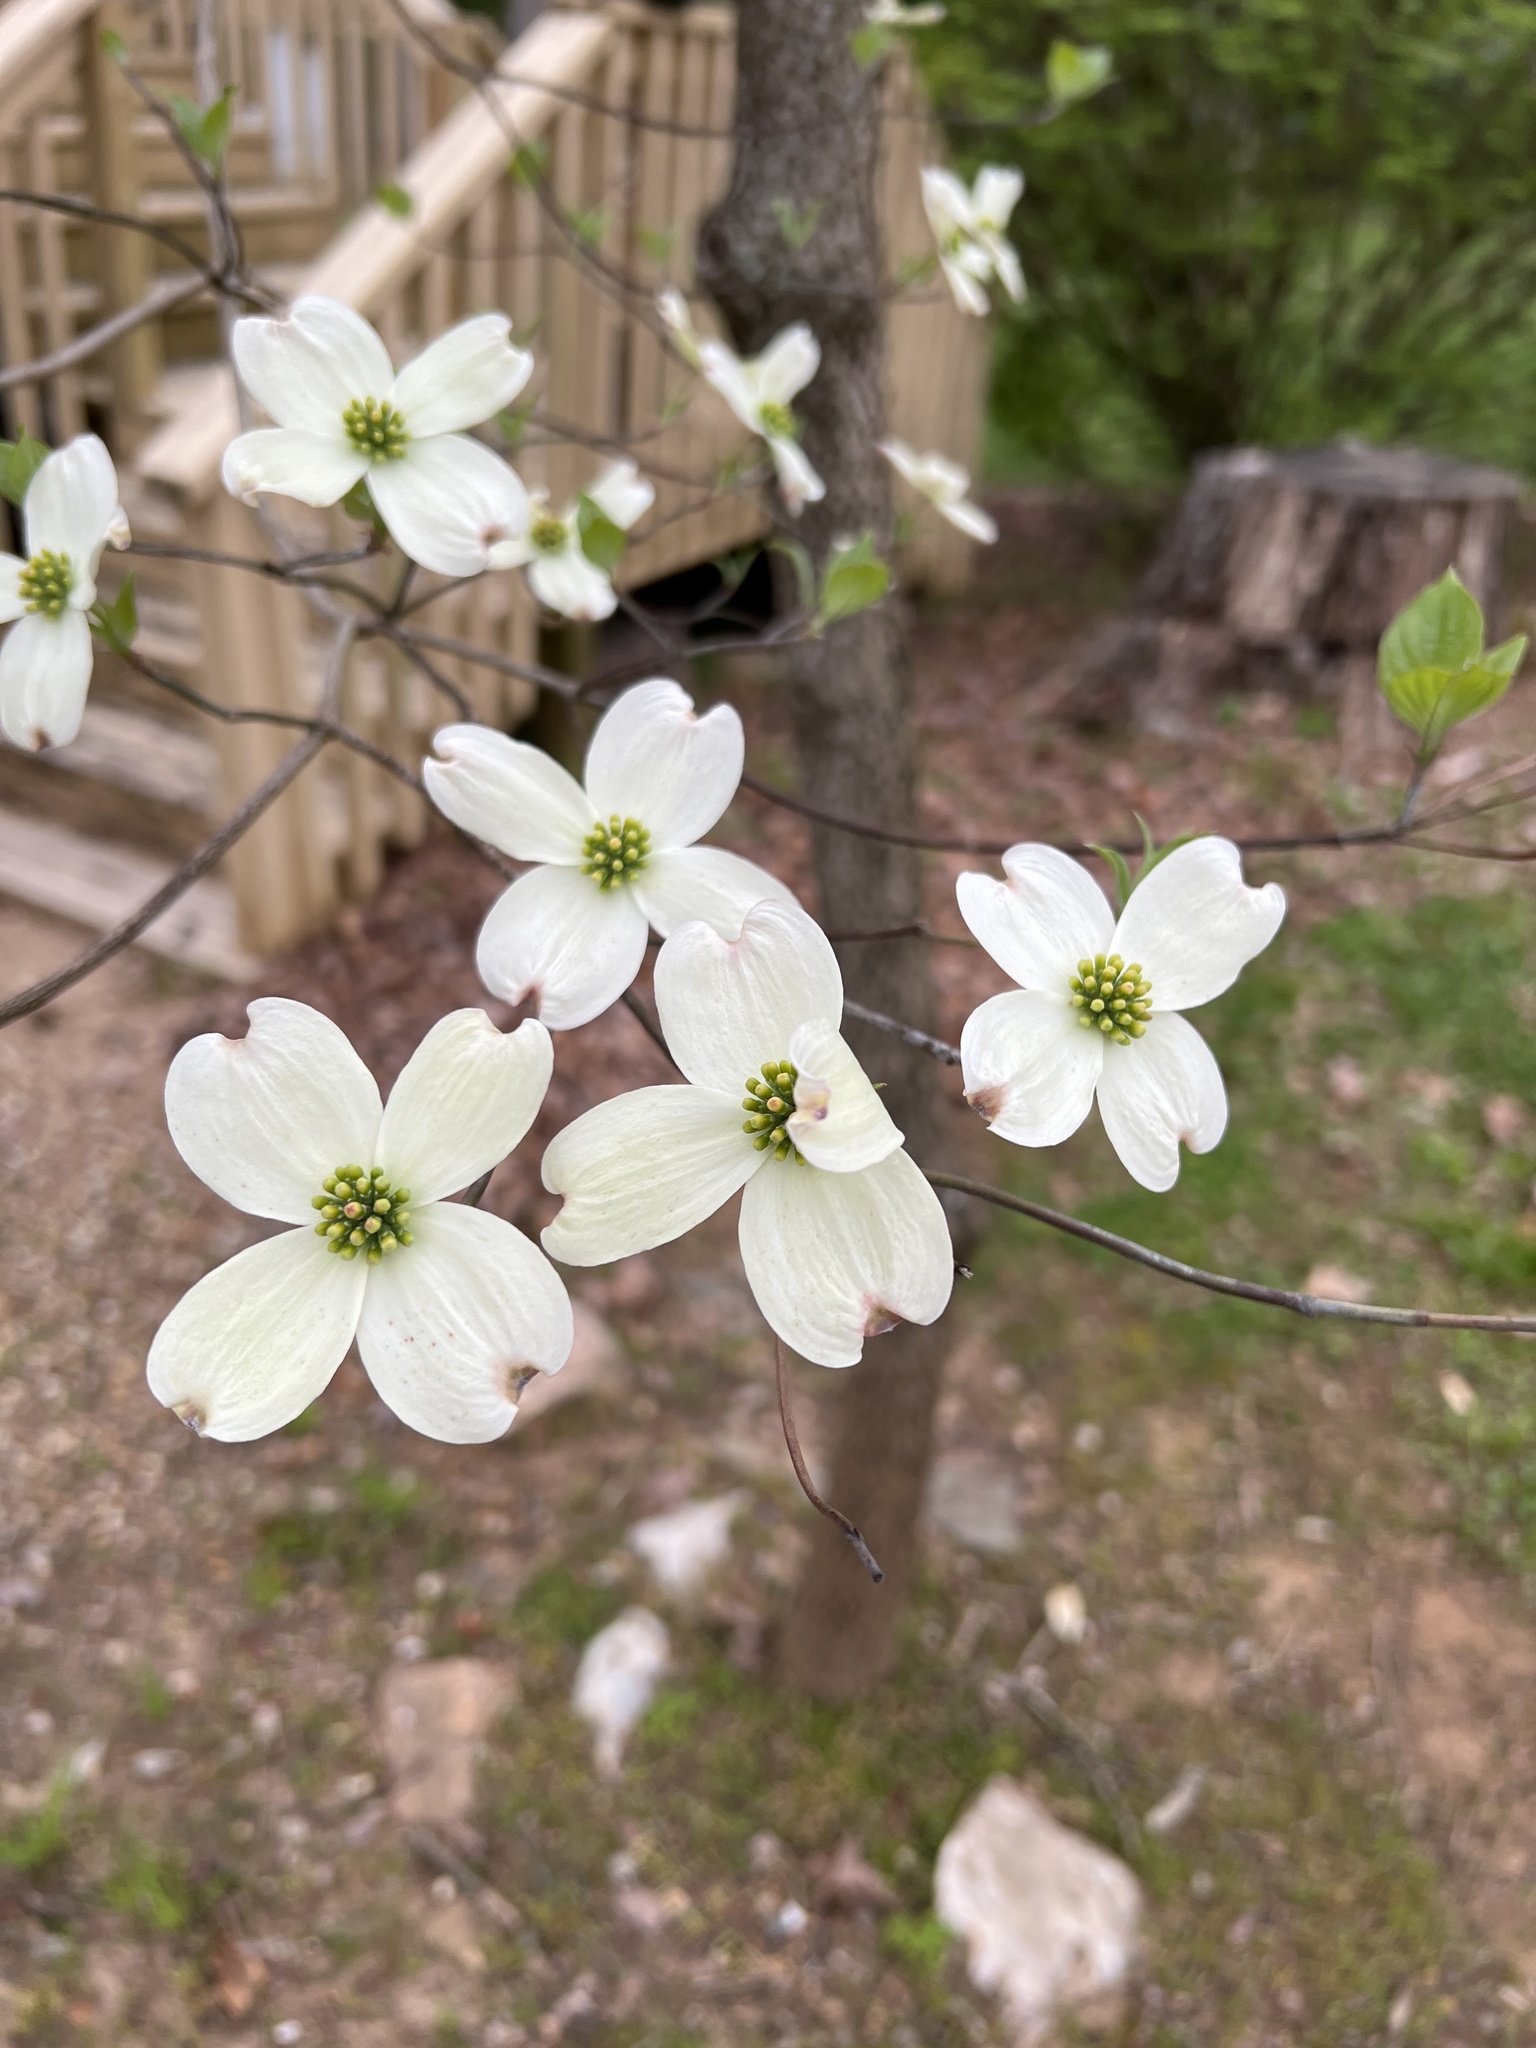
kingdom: Plantae
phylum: Tracheophyta
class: Magnoliopsida
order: Cornales
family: Cornaceae
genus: Cornus
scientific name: Cornus florida
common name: Flowering dogwood
